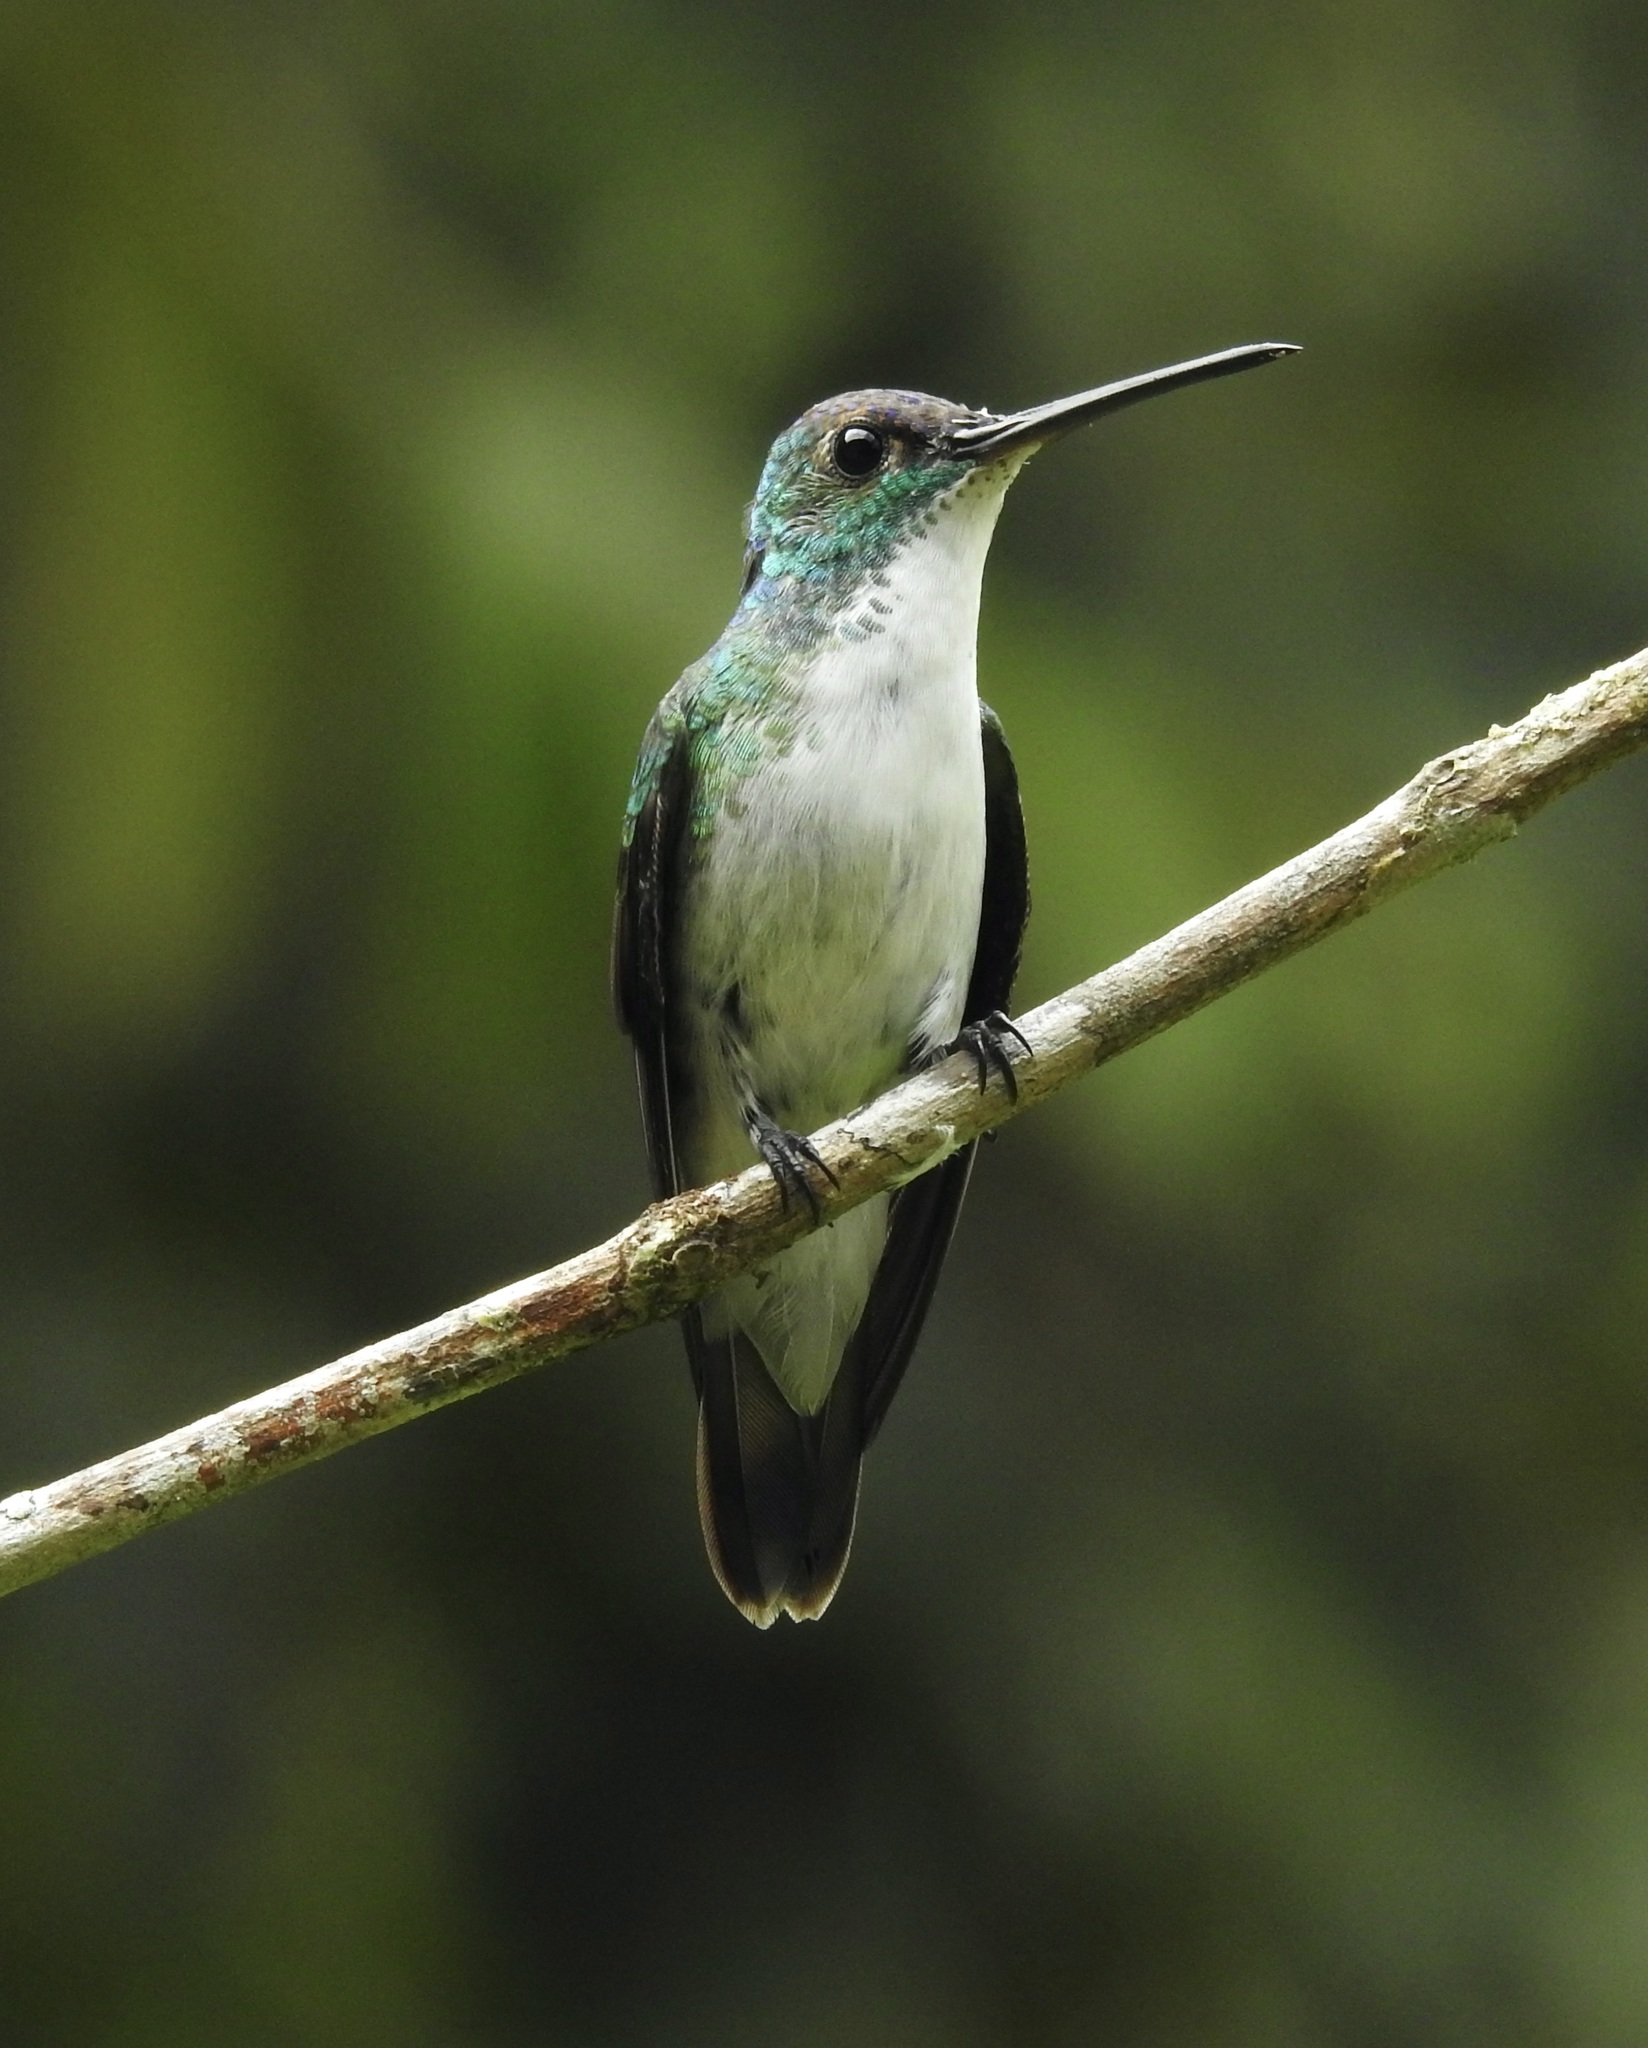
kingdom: Animalia
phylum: Chordata
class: Aves
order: Apodiformes
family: Trochilidae
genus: Uranomitra
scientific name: Uranomitra franciae
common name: Andean emerald
